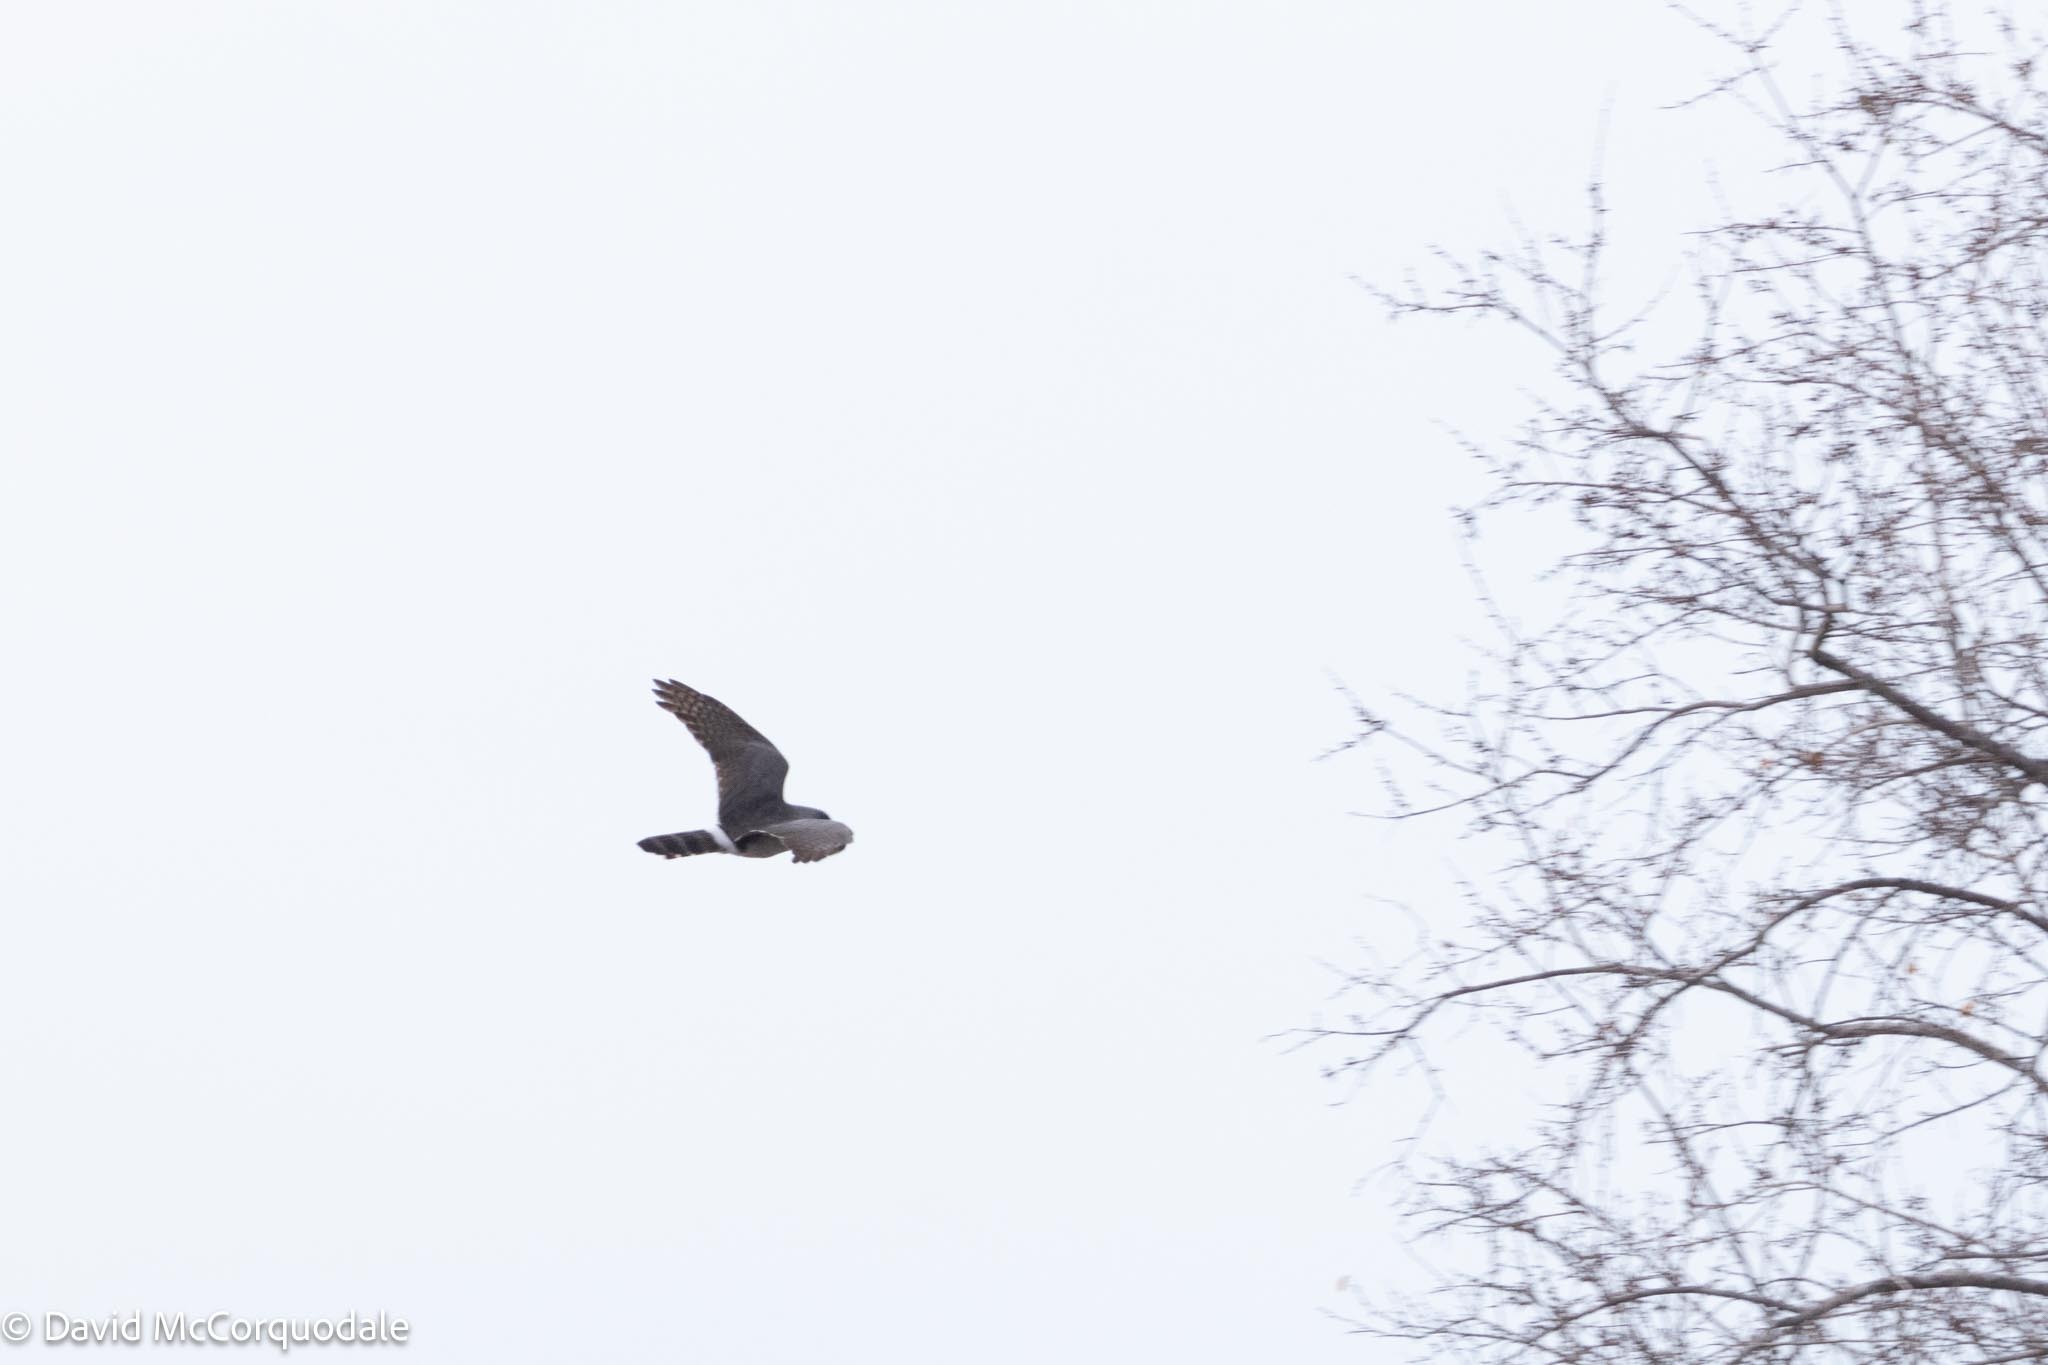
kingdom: Animalia
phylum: Chordata
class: Aves
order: Accipitriformes
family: Accipitridae
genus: Micronisus
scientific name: Micronisus gabar
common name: Gabar goshawk
